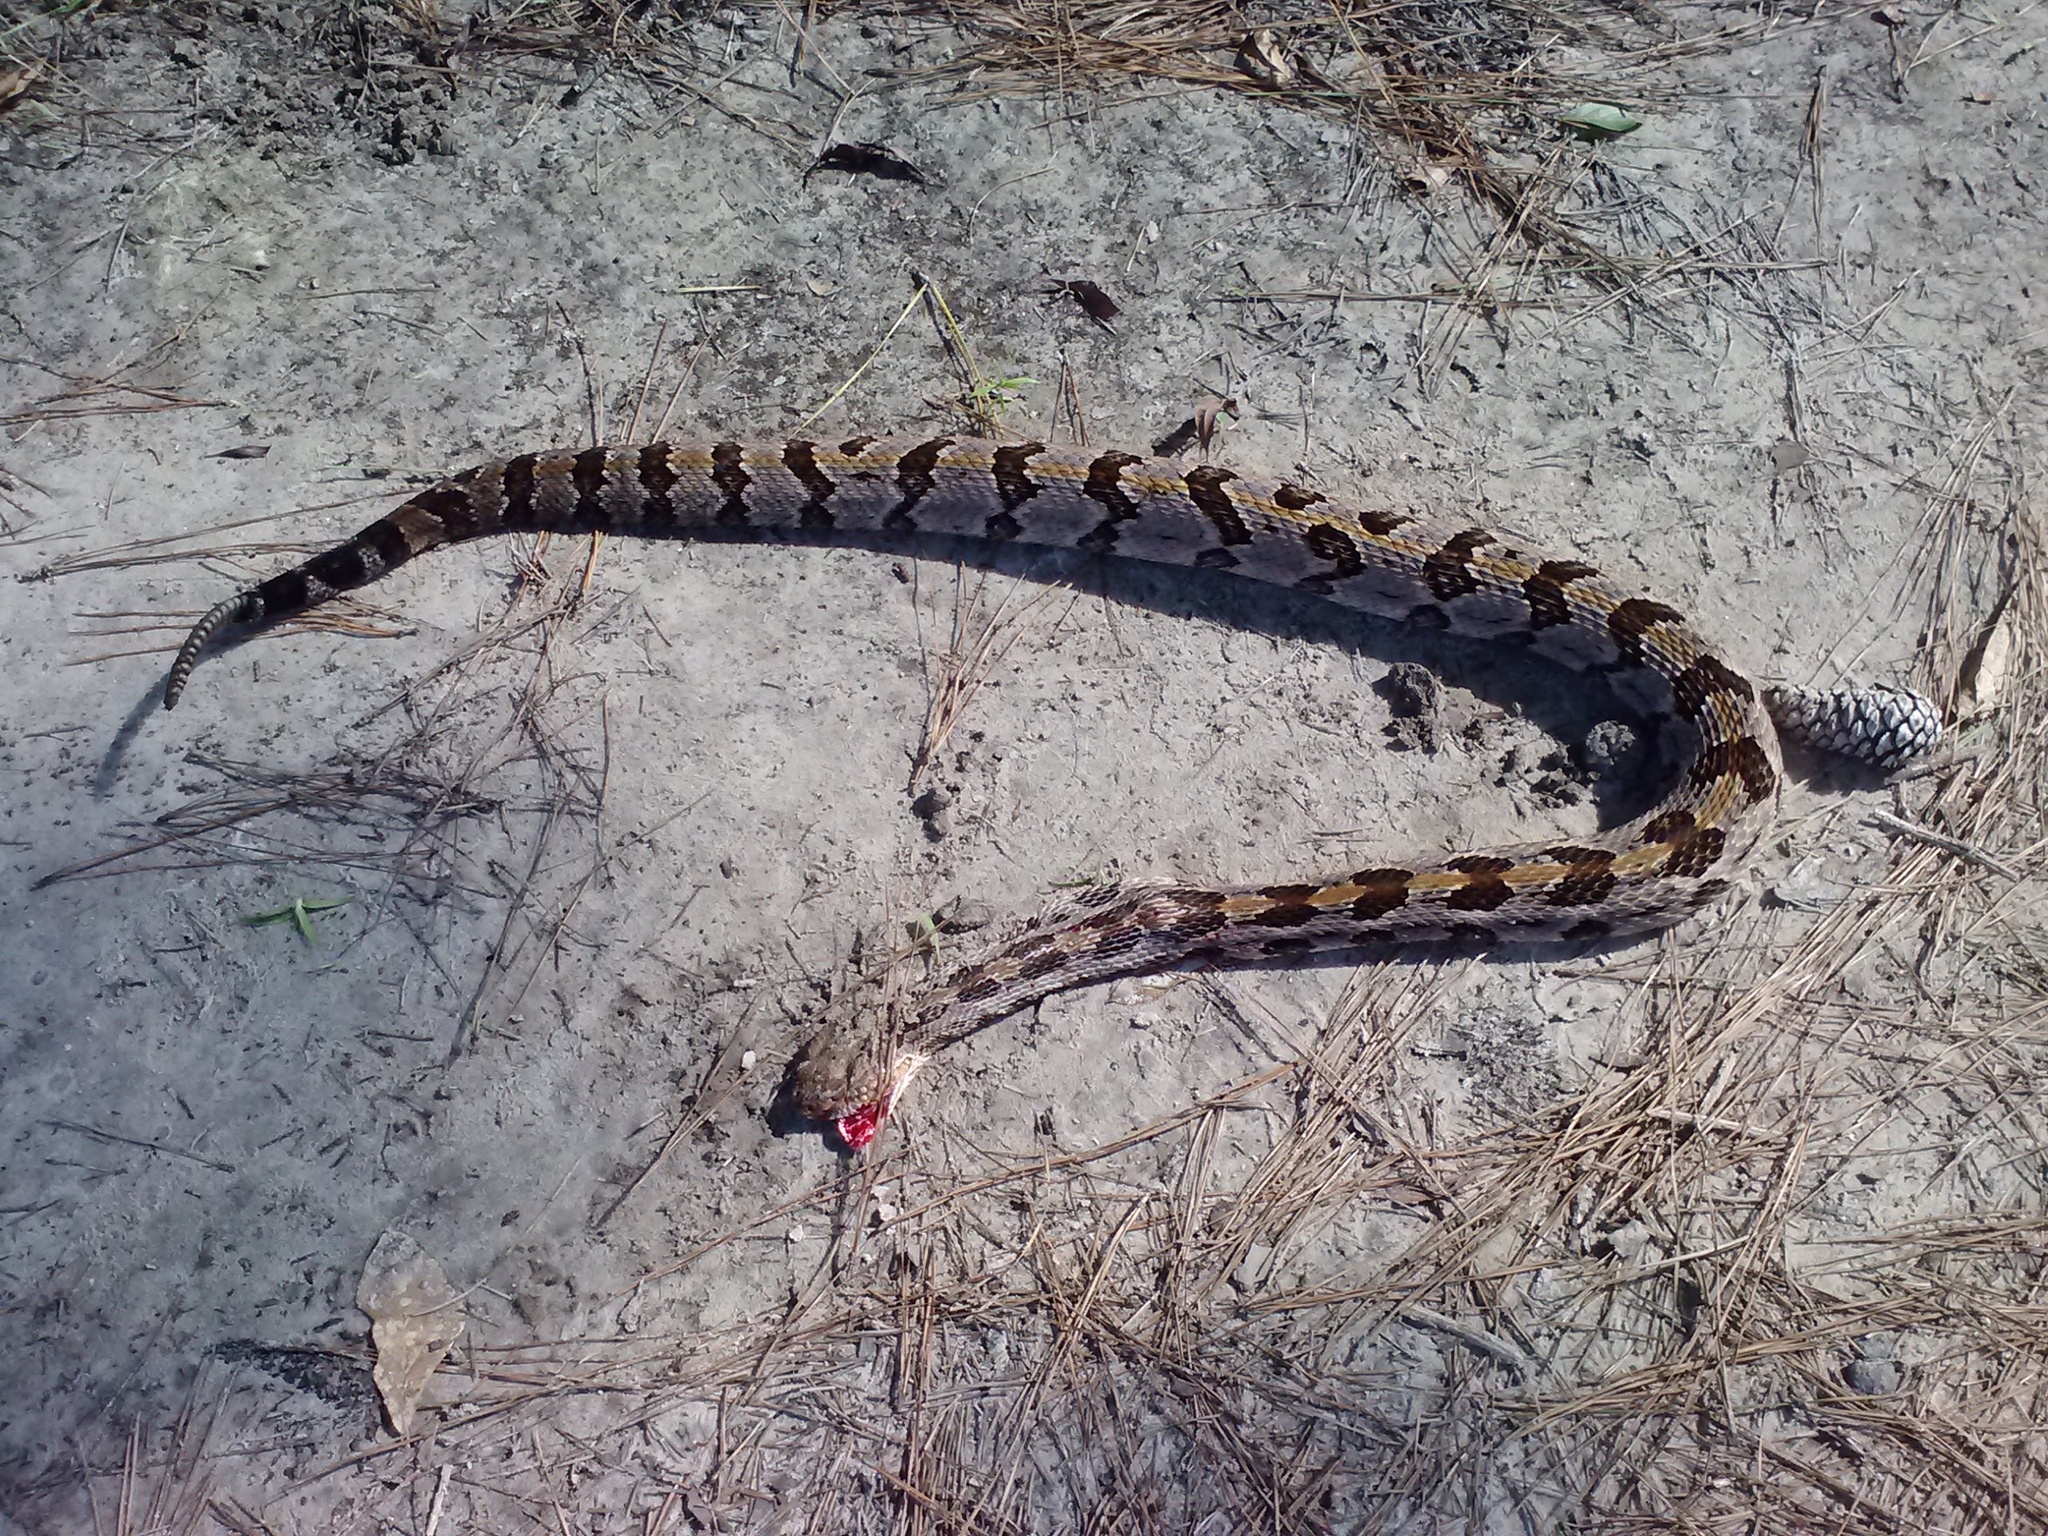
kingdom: Animalia
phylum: Chordata
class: Squamata
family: Viperidae
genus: Crotalus
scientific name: Crotalus horridus
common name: Timber rattlesnake
